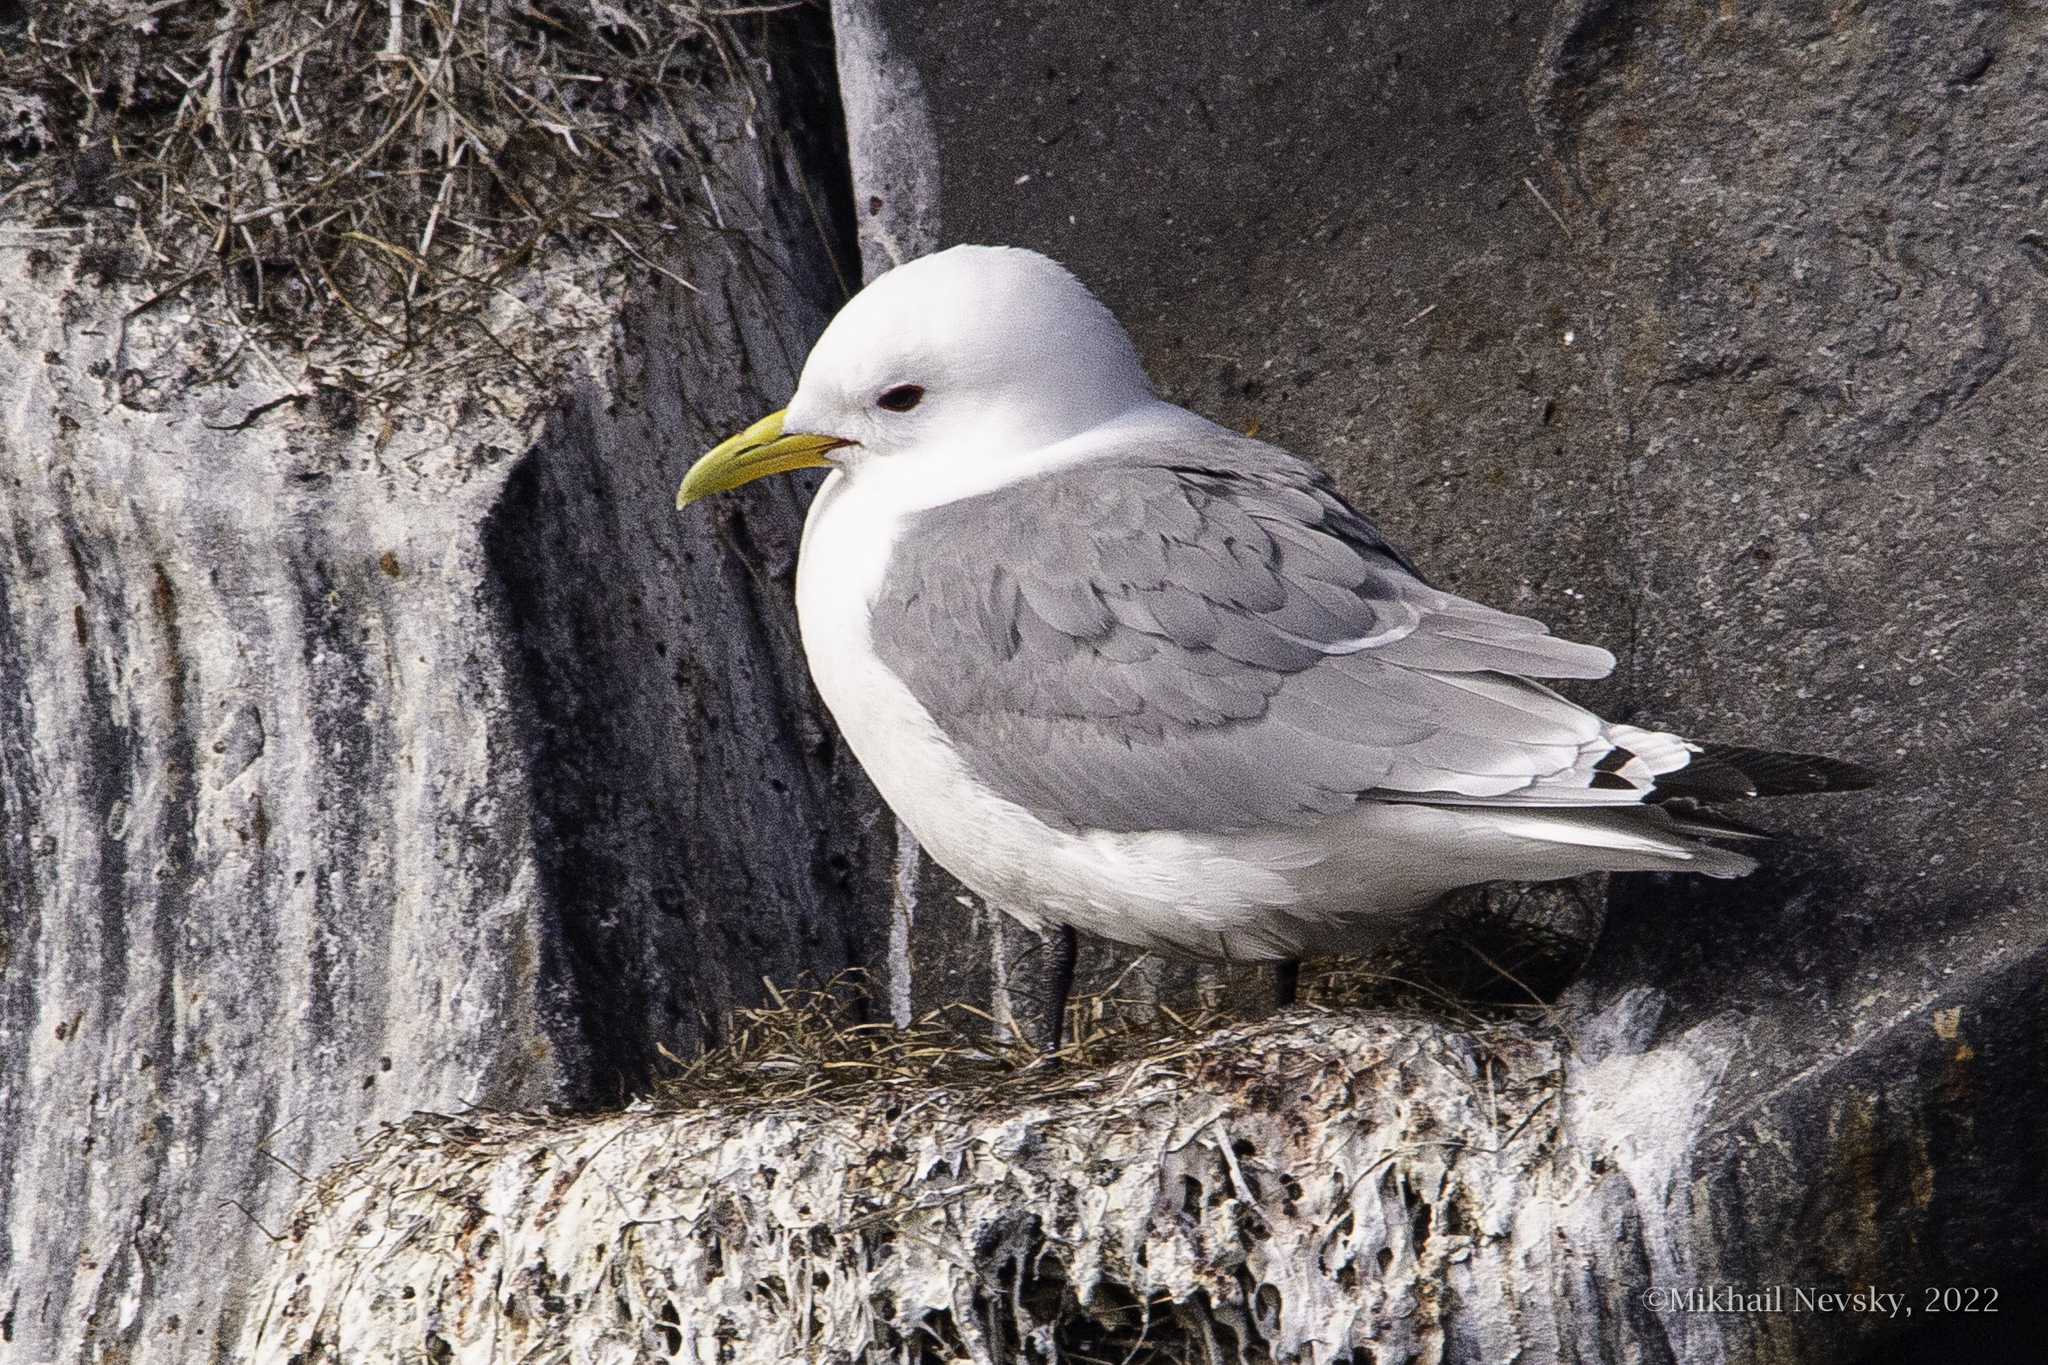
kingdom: Animalia
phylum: Chordata
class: Aves
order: Charadriiformes
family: Laridae
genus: Rissa
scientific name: Rissa tridactyla
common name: Black-legged kittiwake
